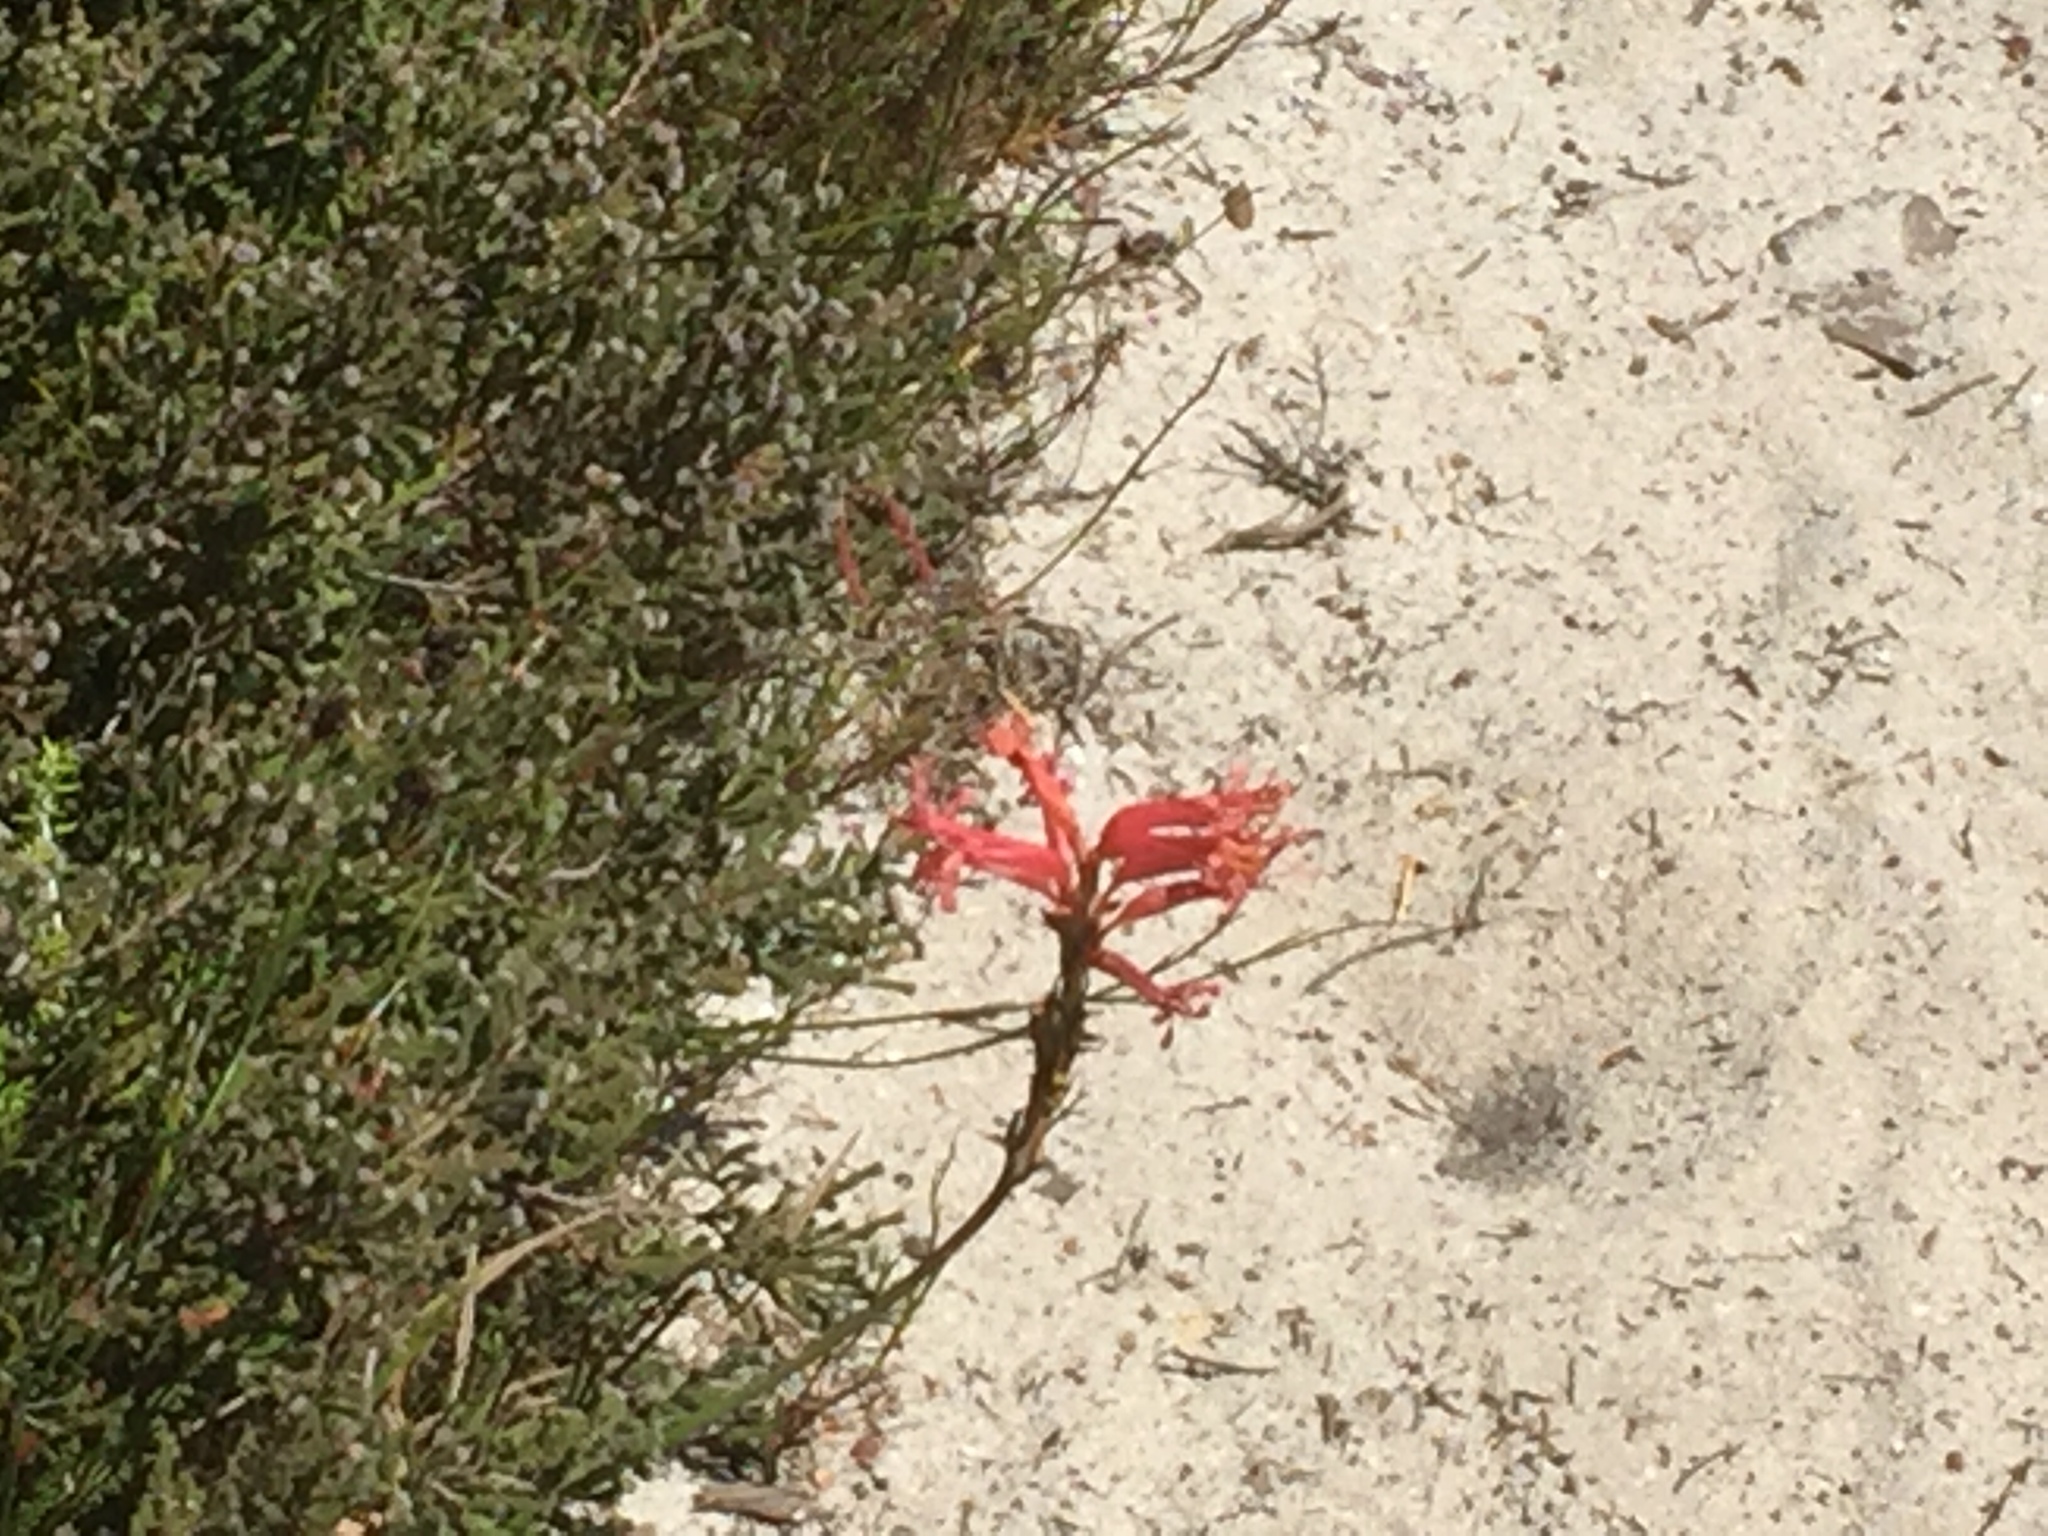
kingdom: Plantae
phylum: Tracheophyta
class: Liliopsida
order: Asparagales
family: Iridaceae
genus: Tritoniopsis
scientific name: Tritoniopsis antholyza
